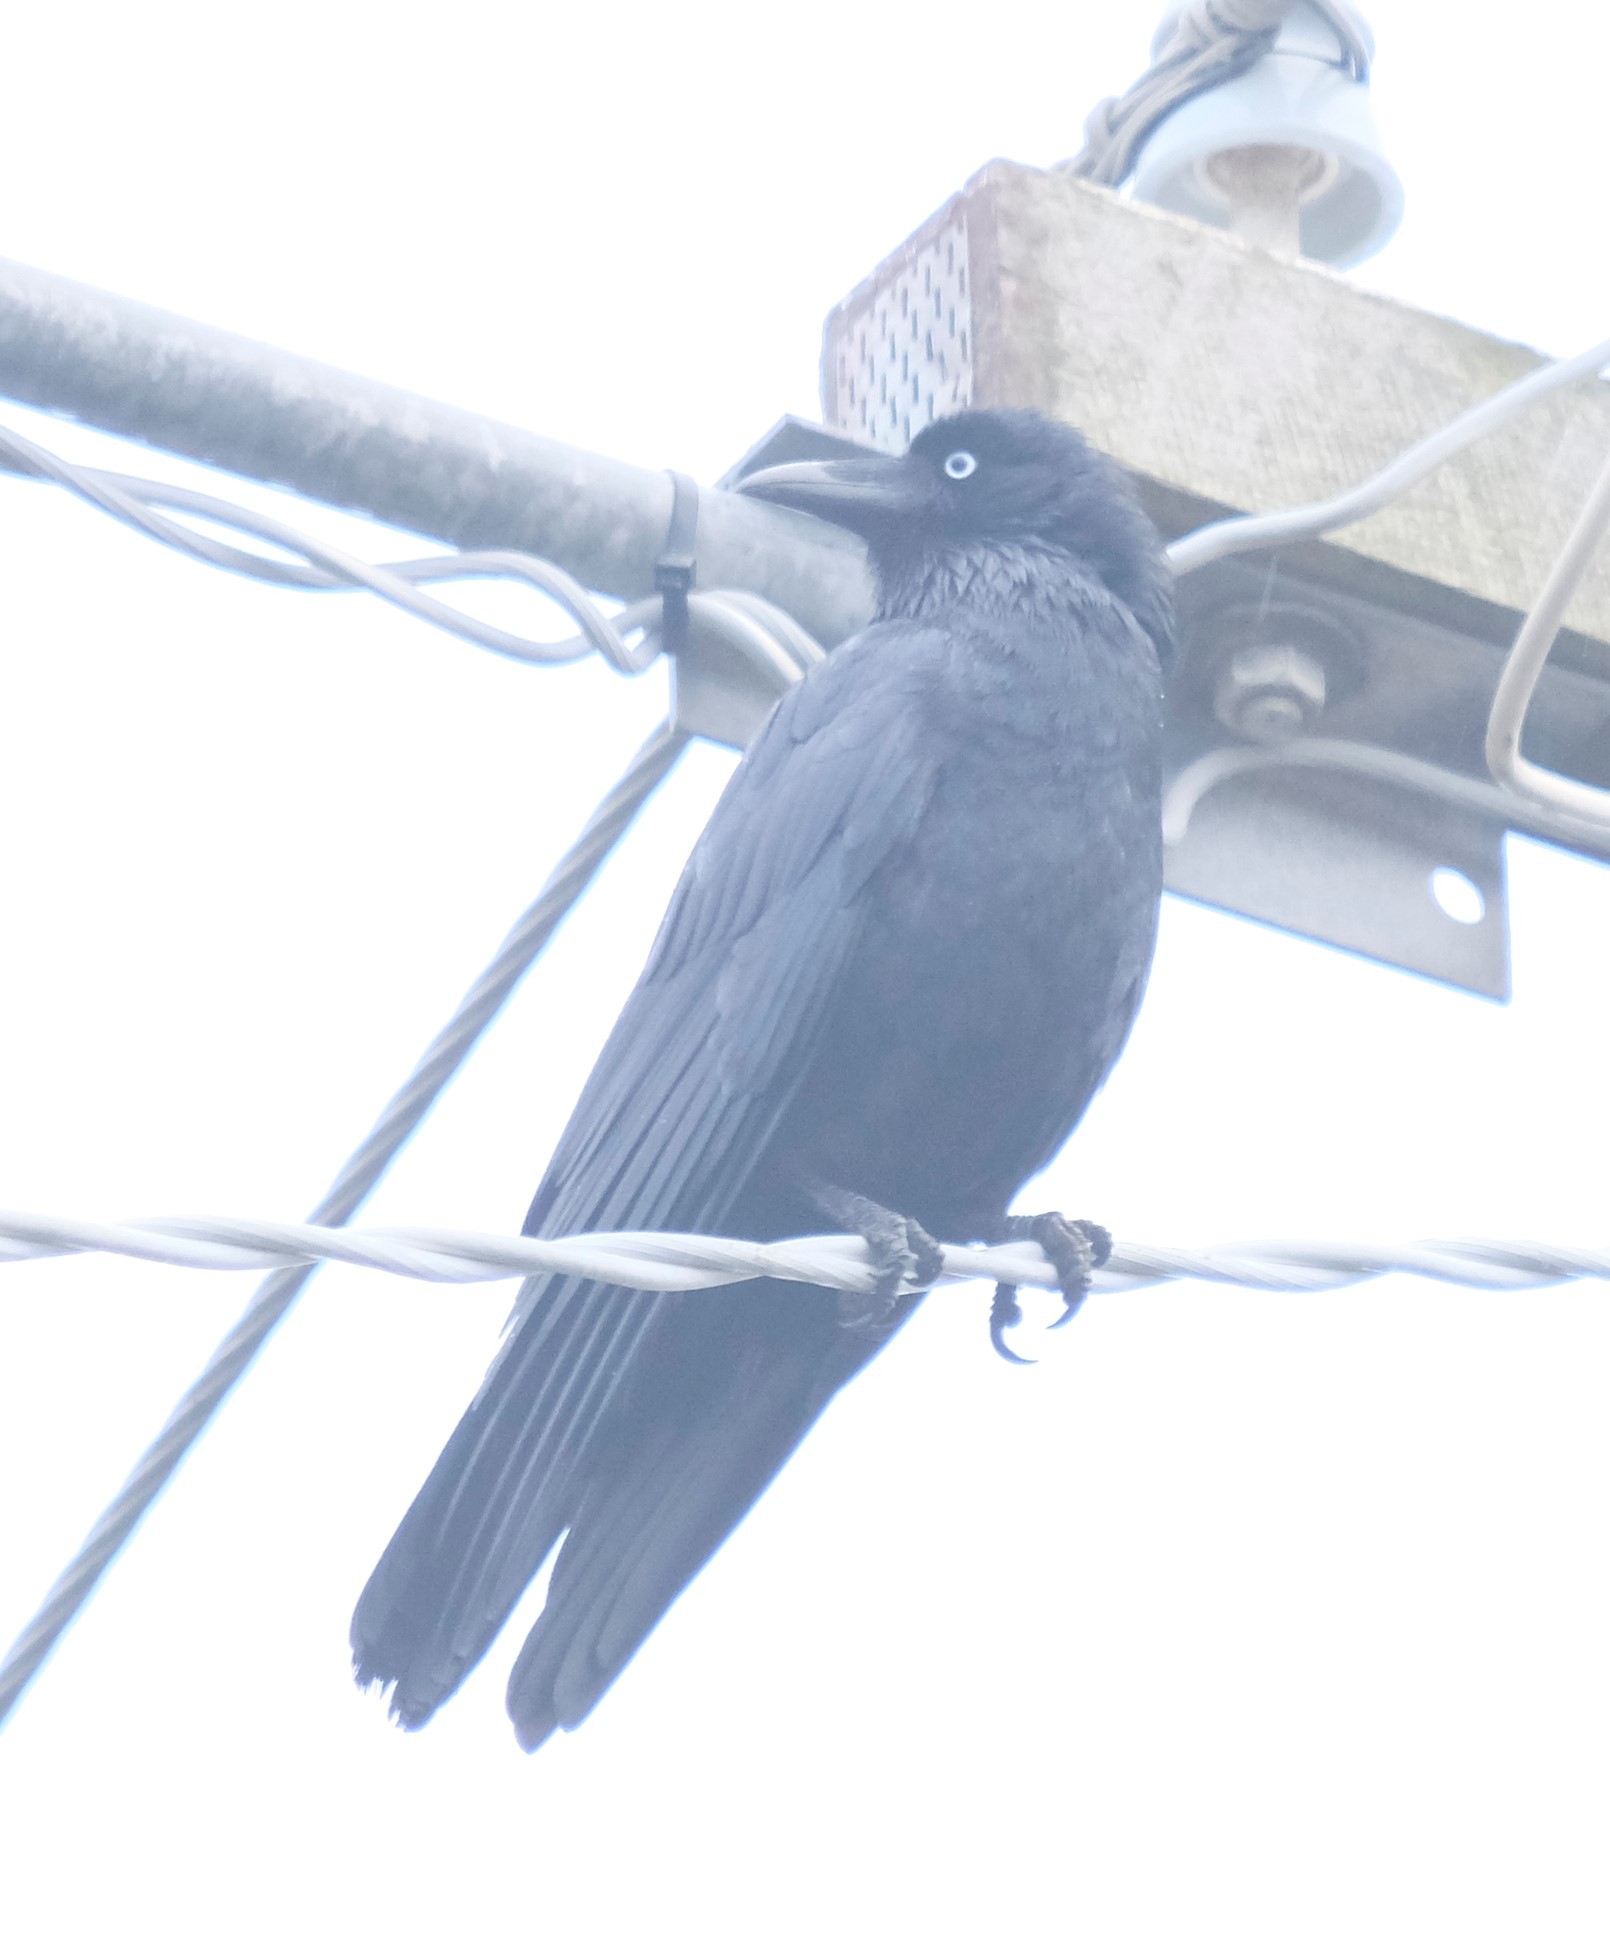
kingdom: Animalia
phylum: Chordata
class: Aves
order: Passeriformes
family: Corvidae
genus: Corvus
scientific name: Corvus tasmanicus
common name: Forest raven
